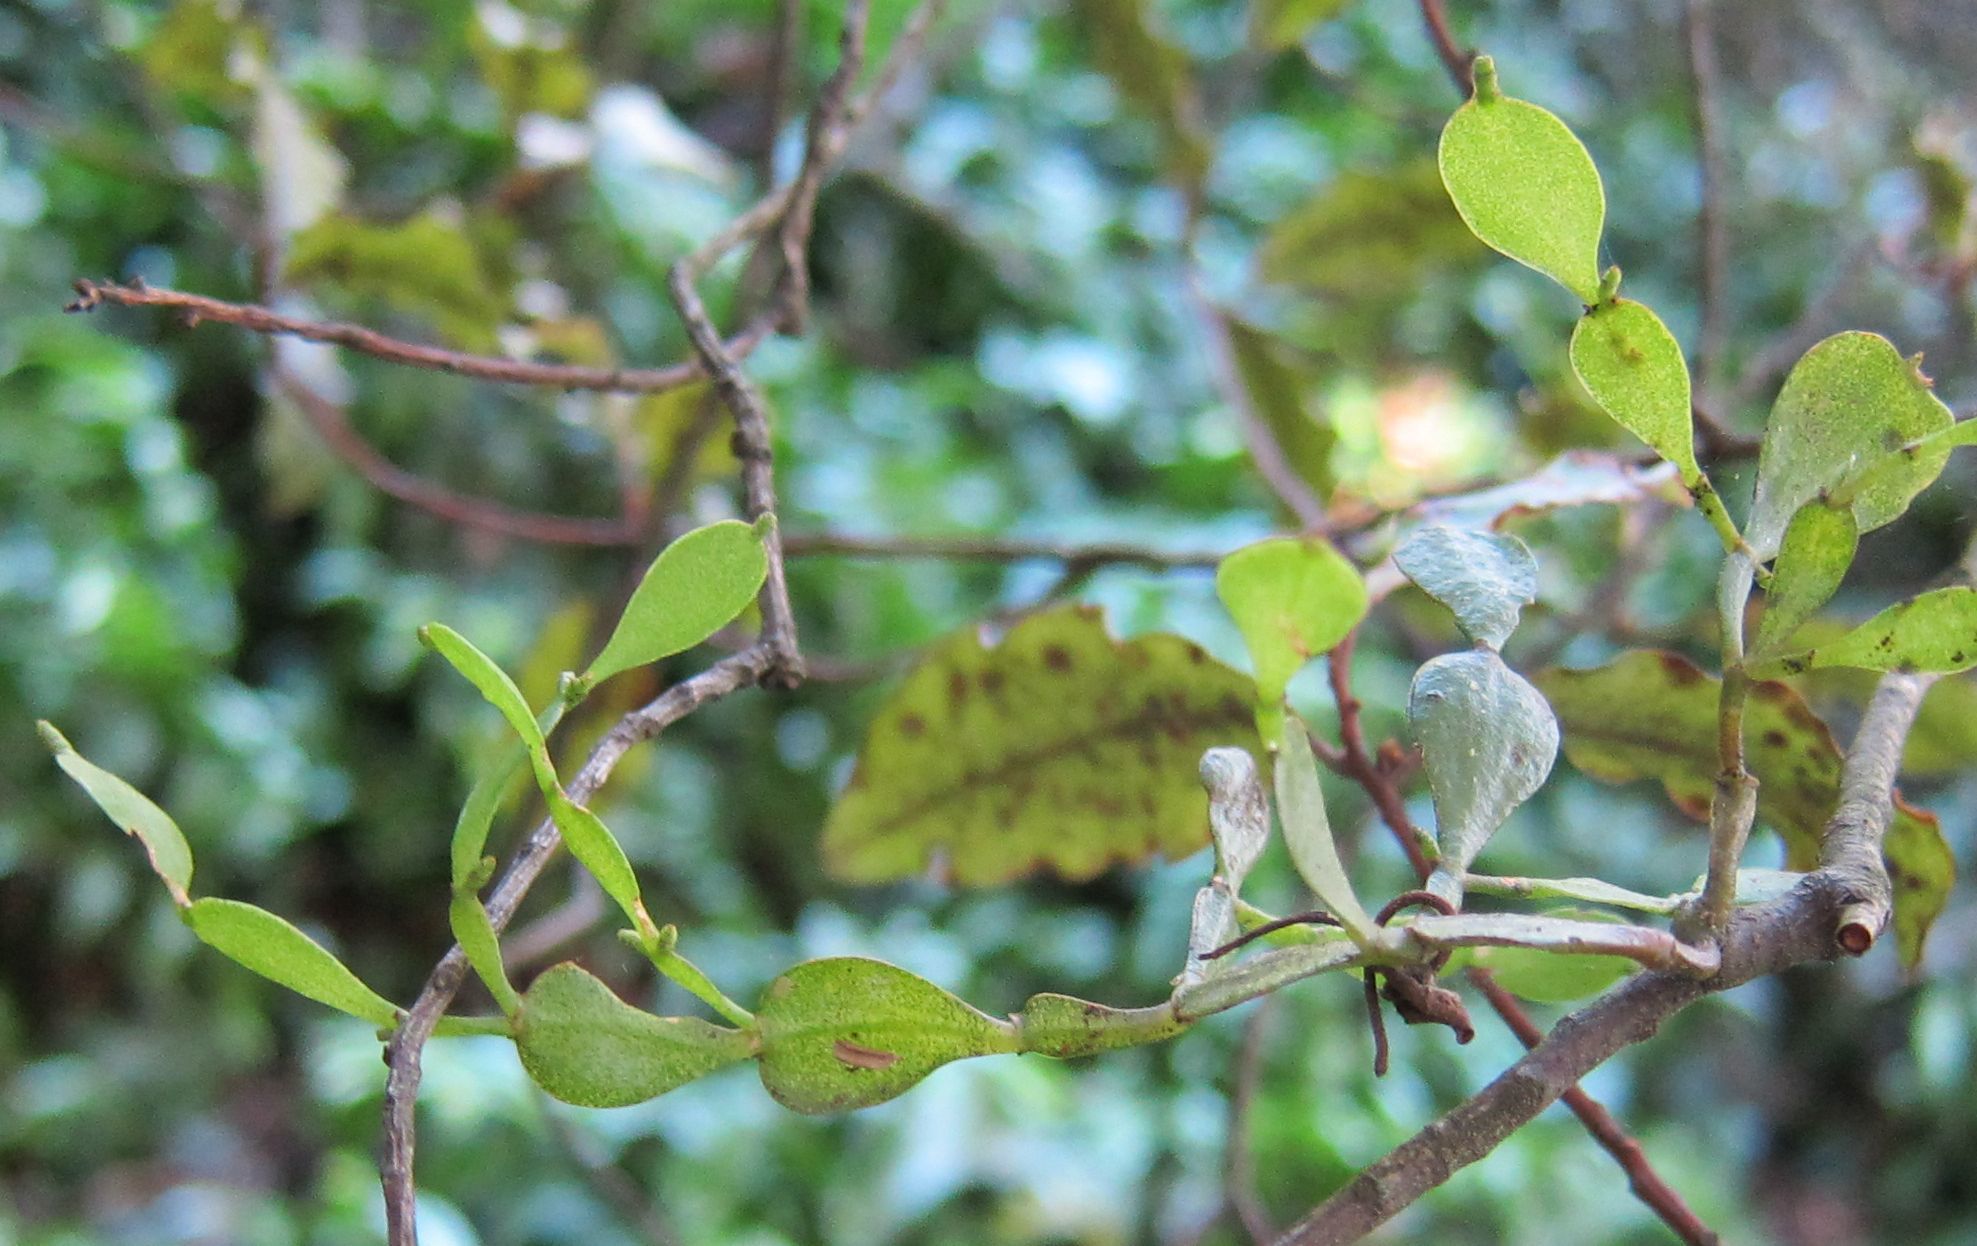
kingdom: Plantae
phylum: Tracheophyta
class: Magnoliopsida
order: Santalales
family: Viscaceae
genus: Korthalsella
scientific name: Korthalsella lindsayi
